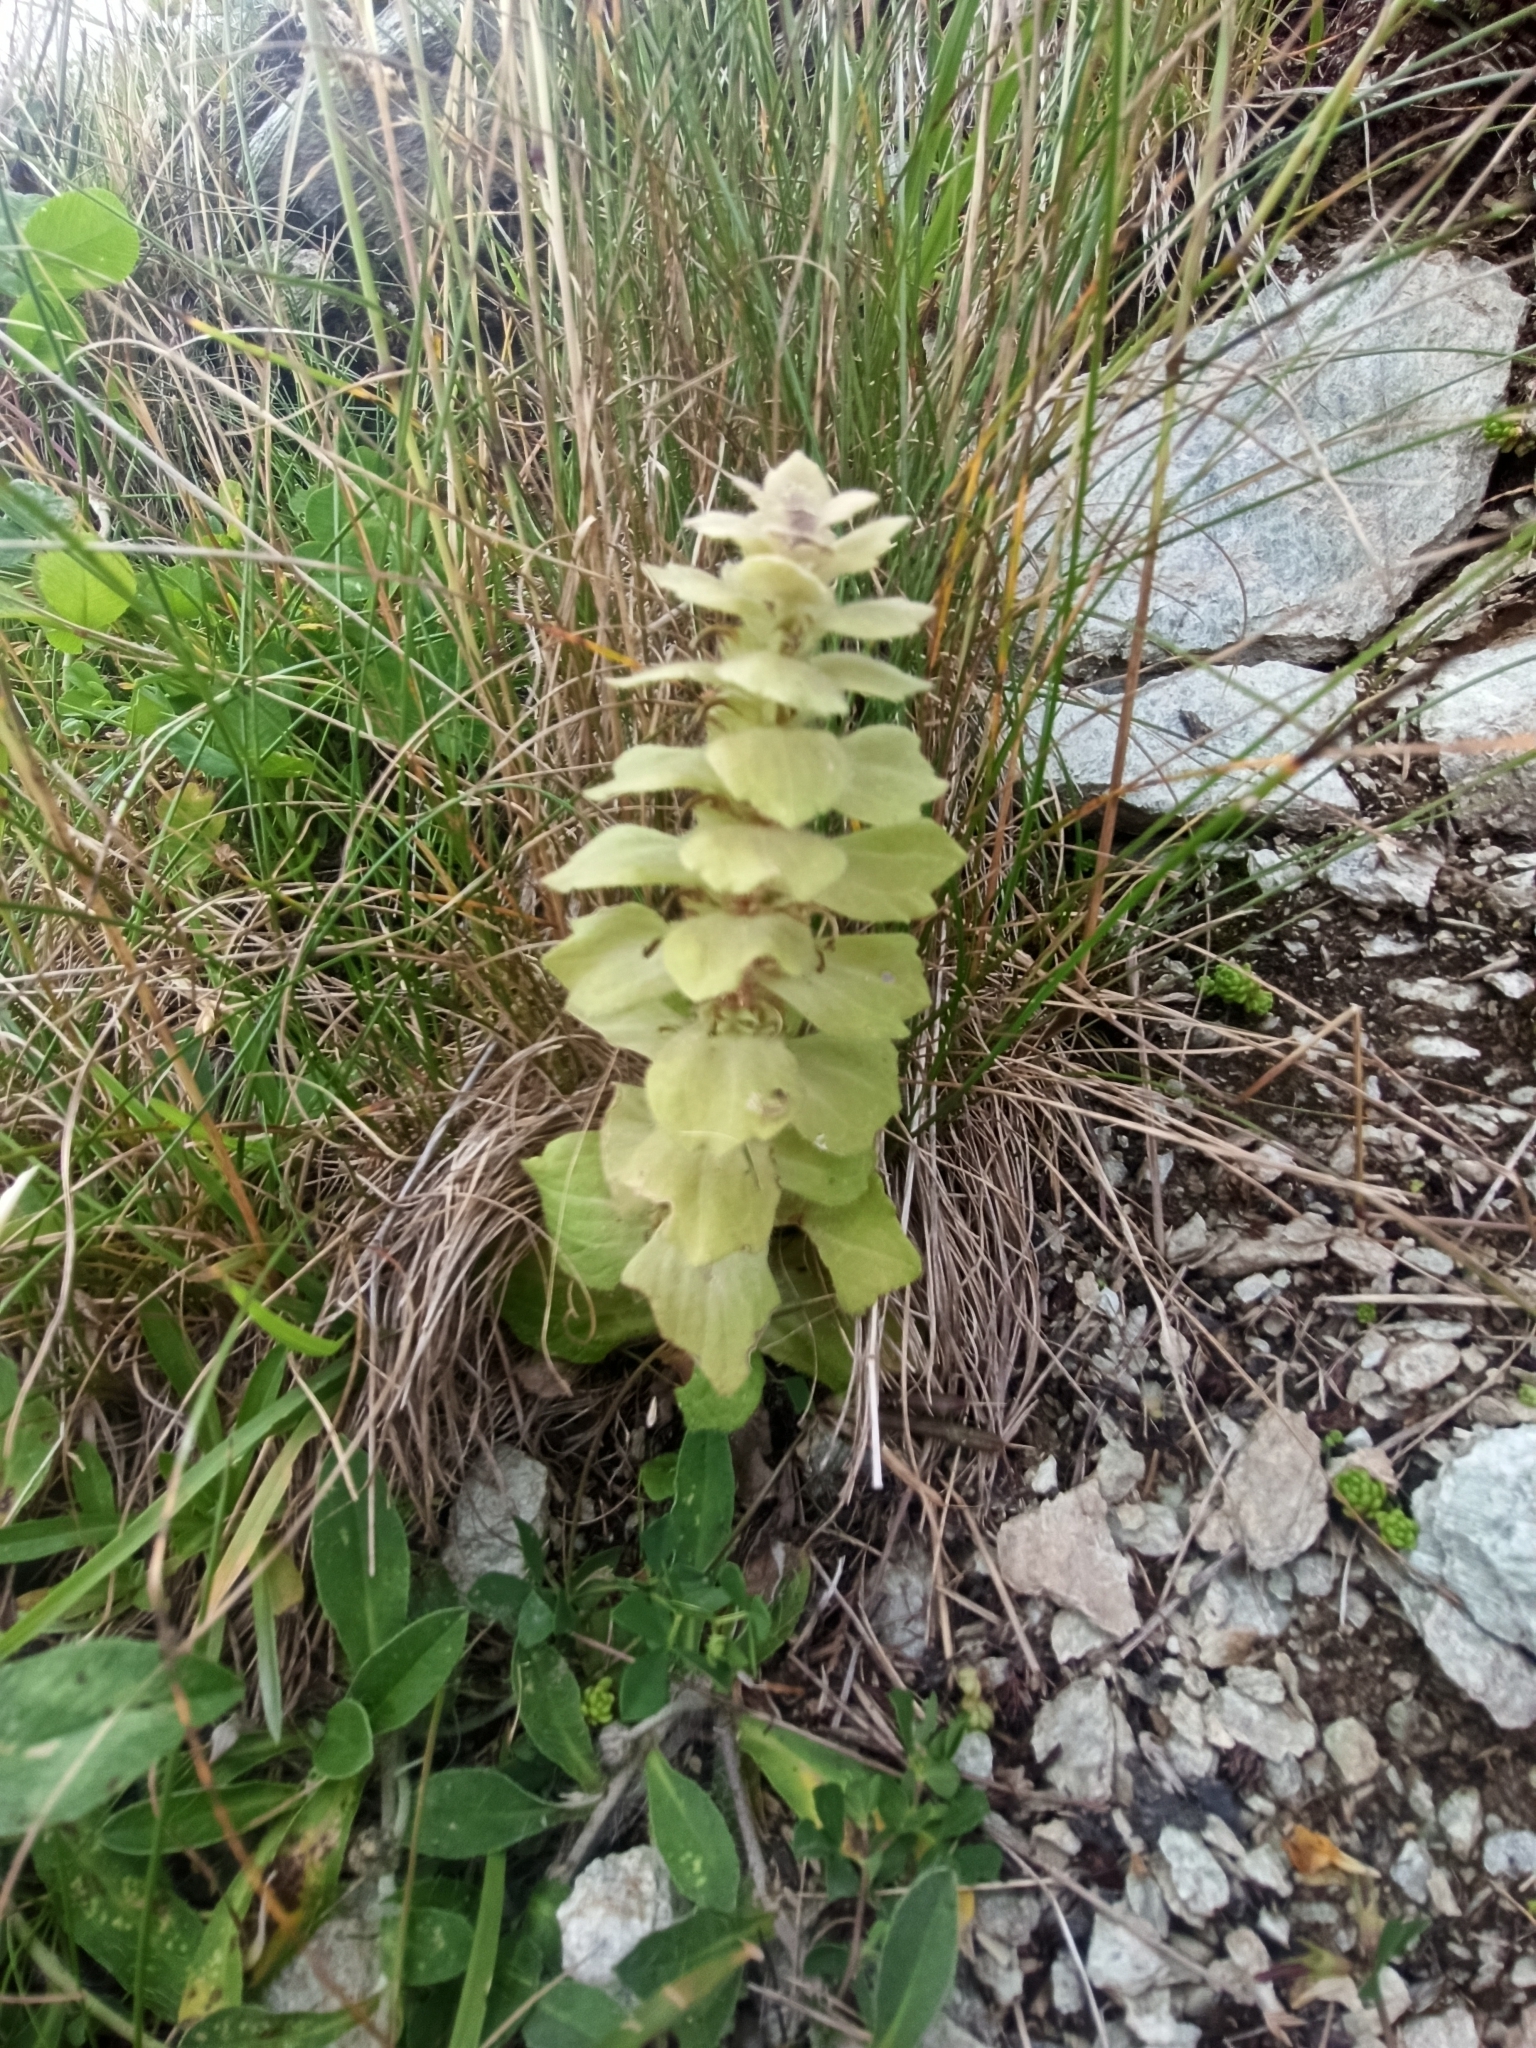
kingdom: Plantae
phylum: Tracheophyta
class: Magnoliopsida
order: Lamiales
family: Lamiaceae
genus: Ajuga
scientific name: Ajuga pyramidalis
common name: Pyramid bugle
